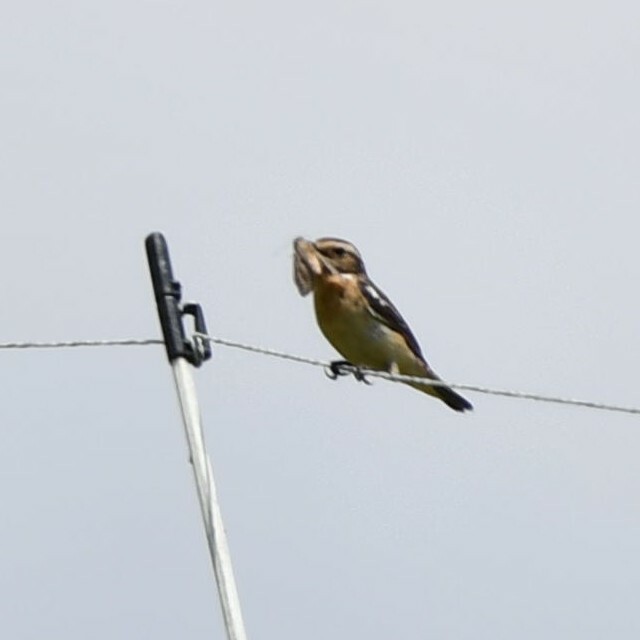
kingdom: Animalia
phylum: Chordata
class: Aves
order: Passeriformes
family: Muscicapidae
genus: Saxicola
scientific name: Saxicola rubetra
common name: Whinchat
